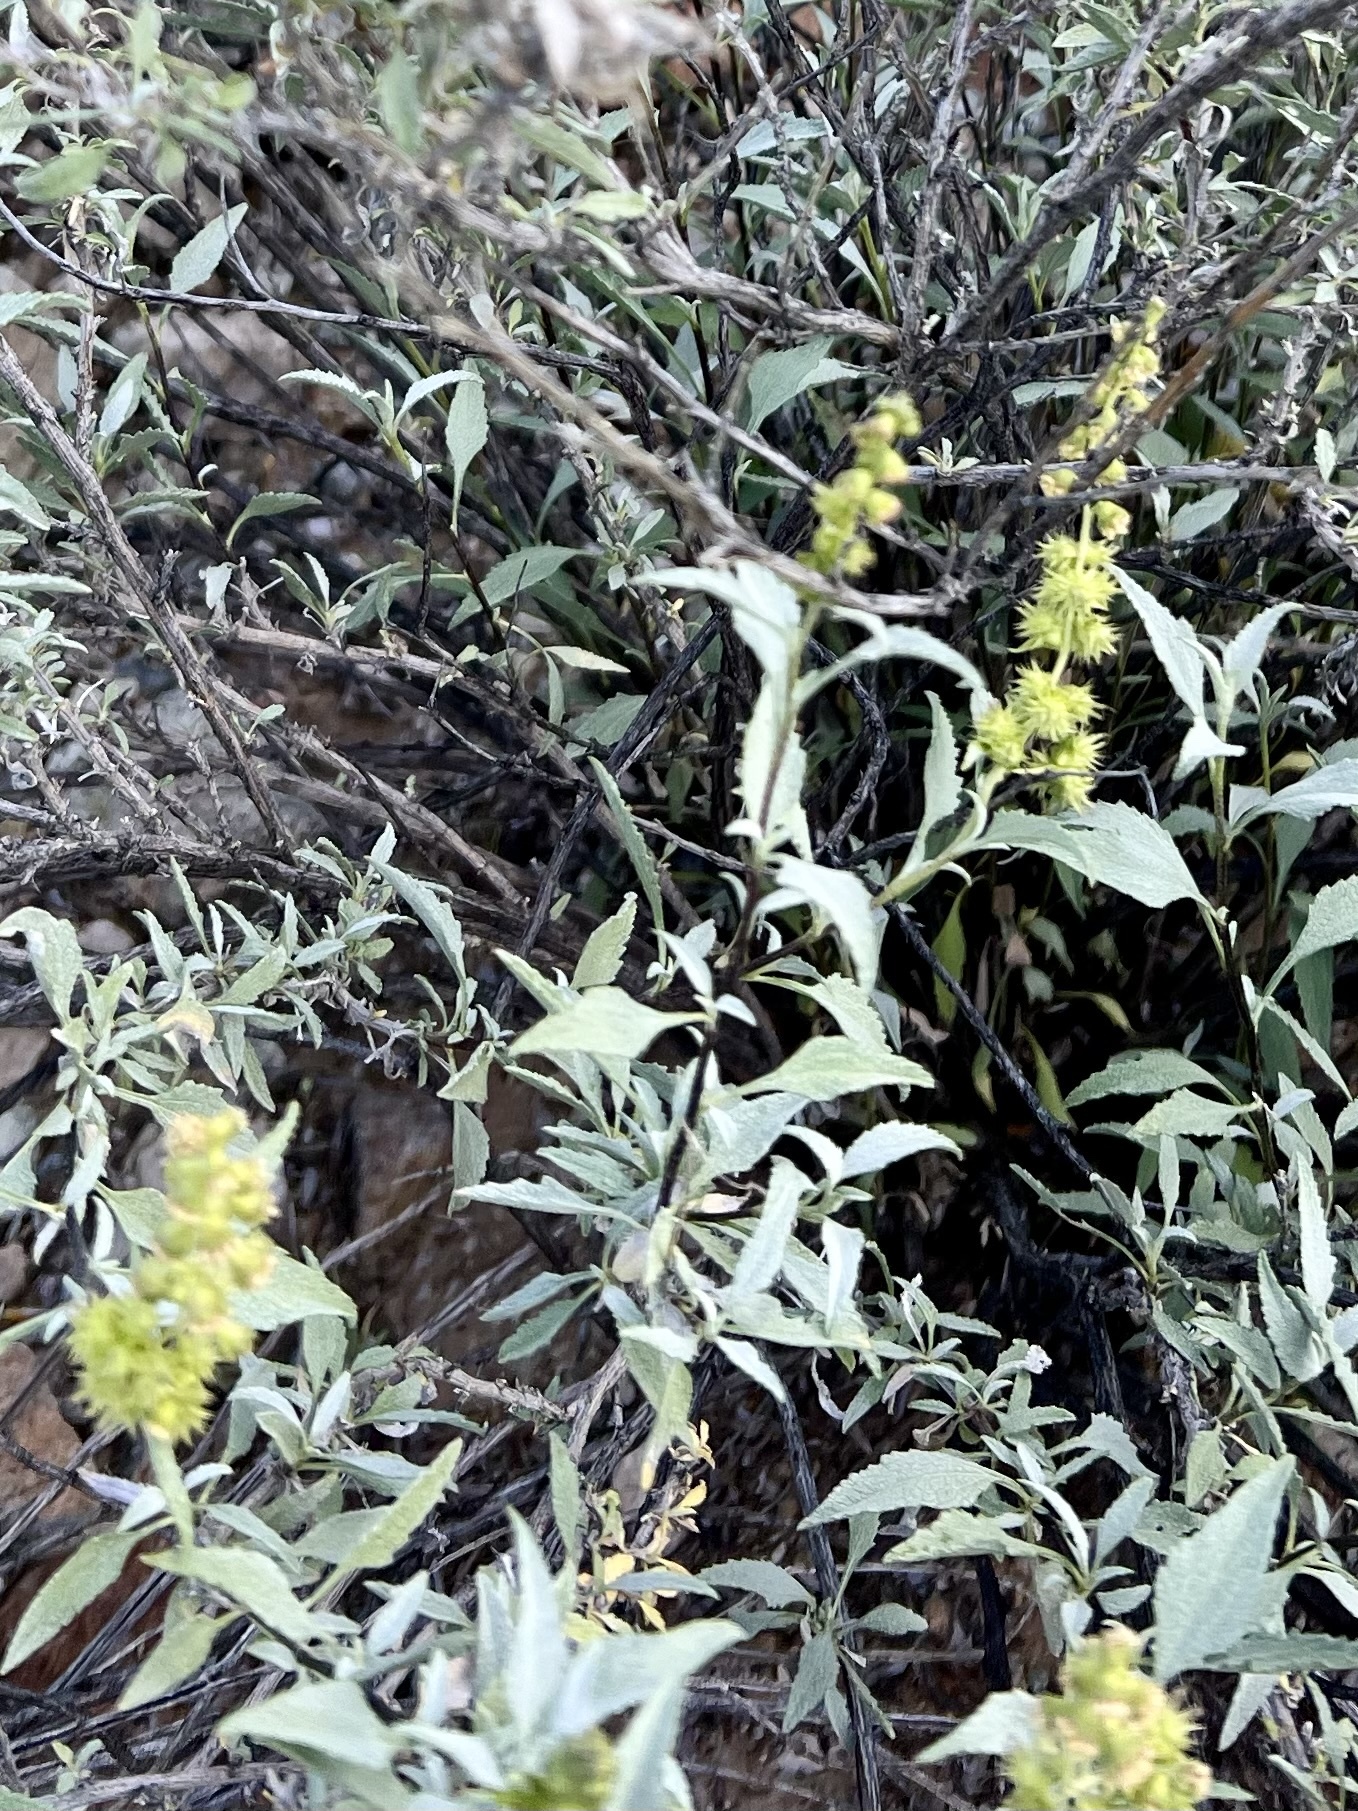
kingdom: Plantae
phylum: Tracheophyta
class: Magnoliopsida
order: Asterales
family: Asteraceae
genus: Ambrosia
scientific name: Ambrosia deltoidea
